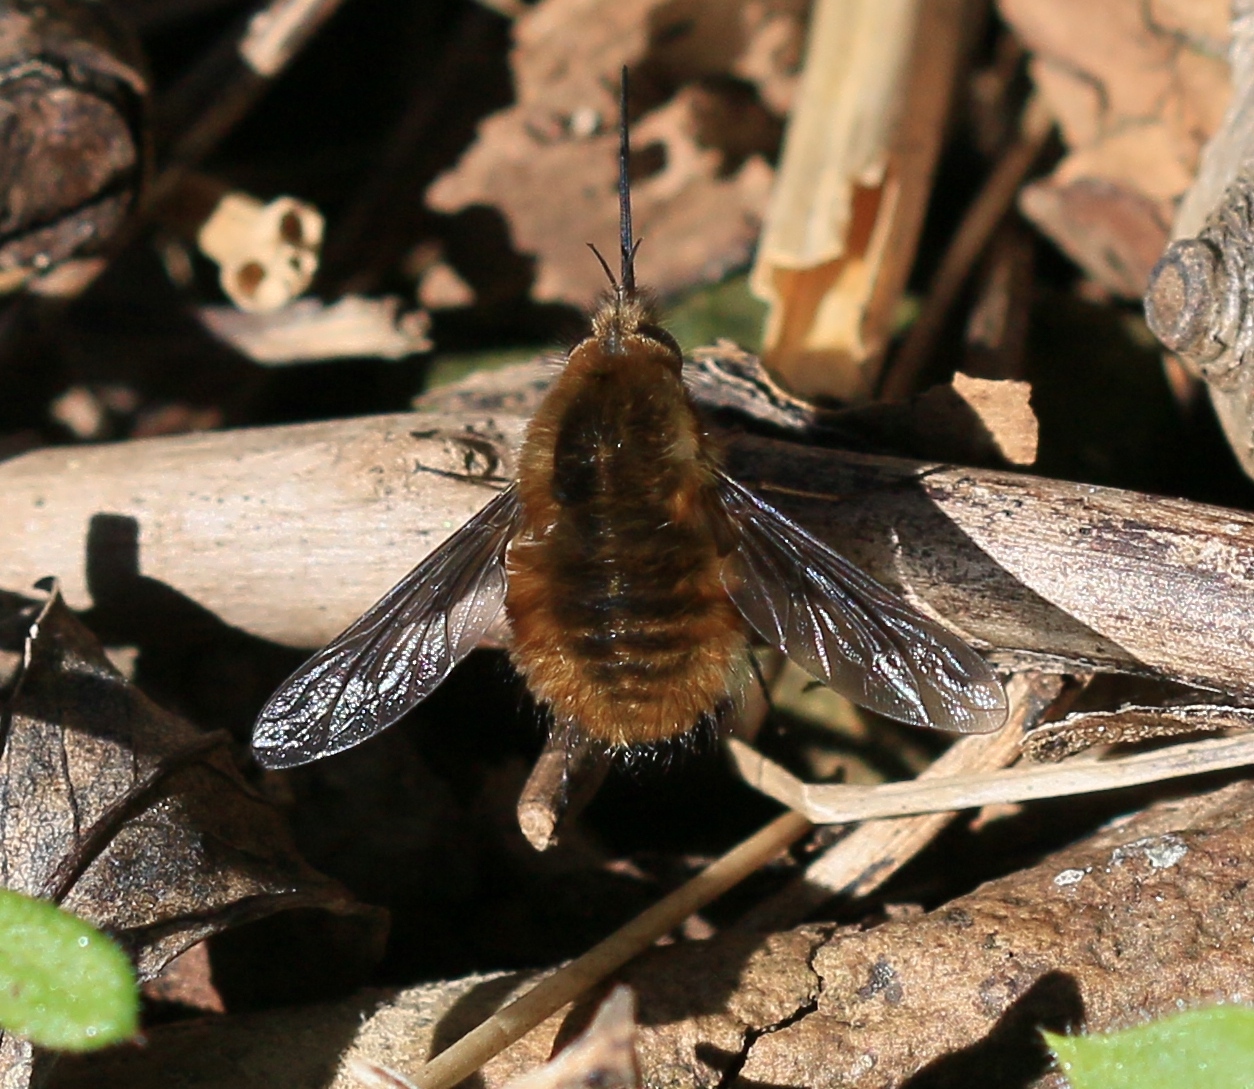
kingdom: Animalia
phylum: Arthropoda
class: Insecta
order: Diptera
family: Bombyliidae
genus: Bombylius
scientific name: Bombylius major
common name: Bee fly
